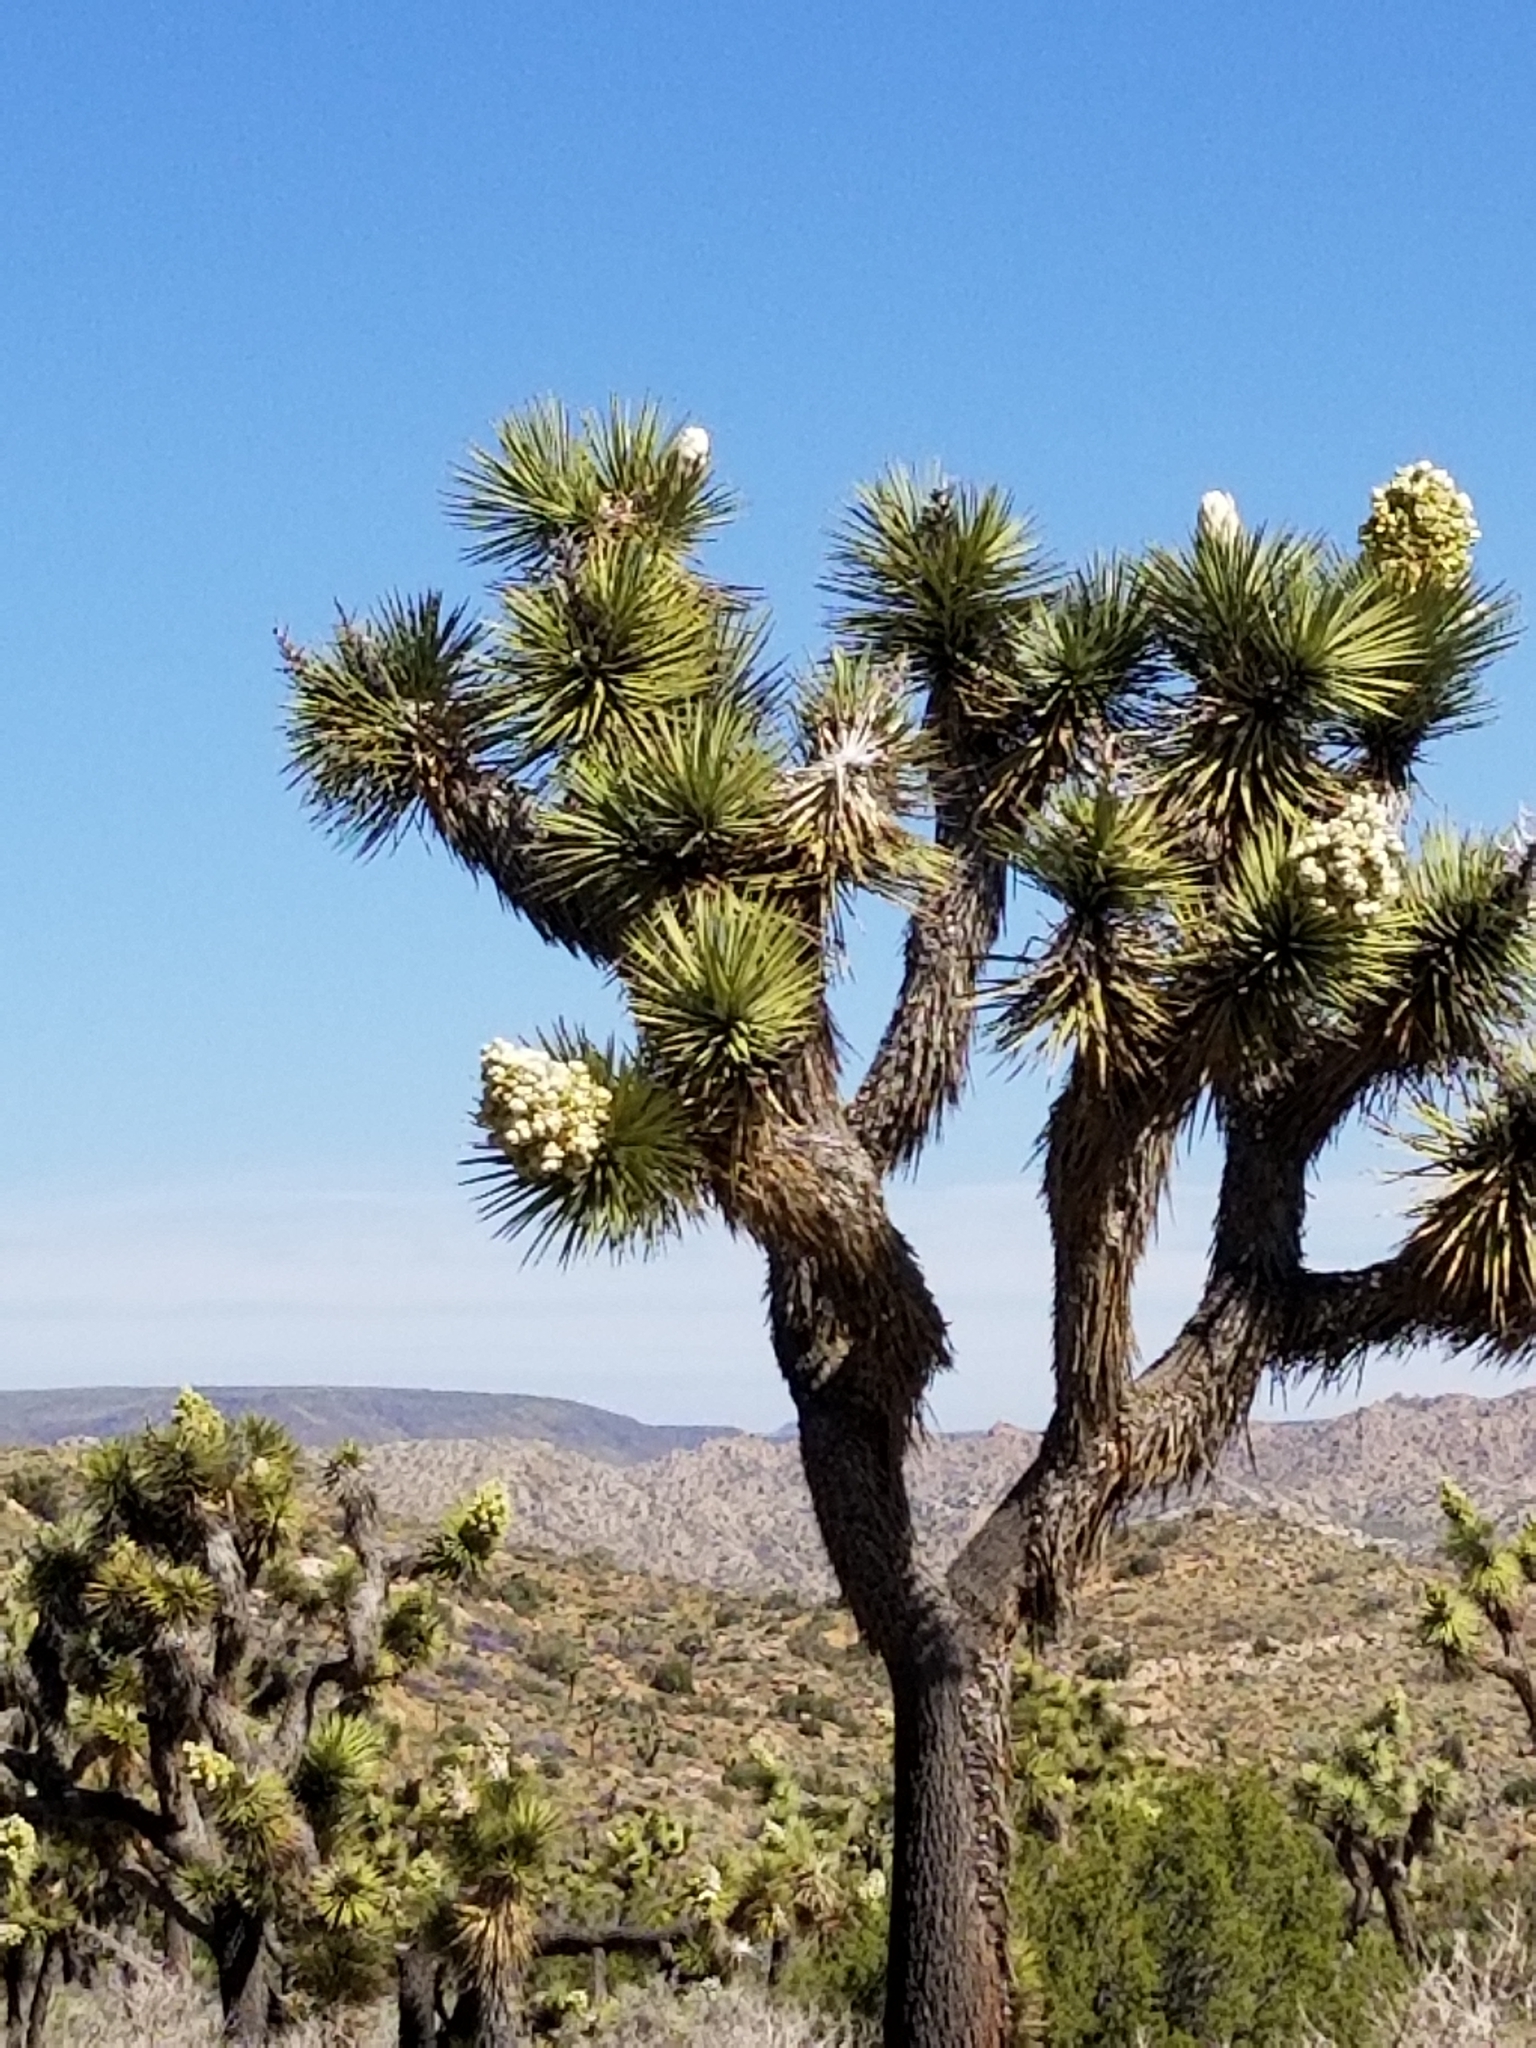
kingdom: Plantae
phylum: Tracheophyta
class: Liliopsida
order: Asparagales
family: Asparagaceae
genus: Yucca
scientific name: Yucca brevifolia
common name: Joshua tree
